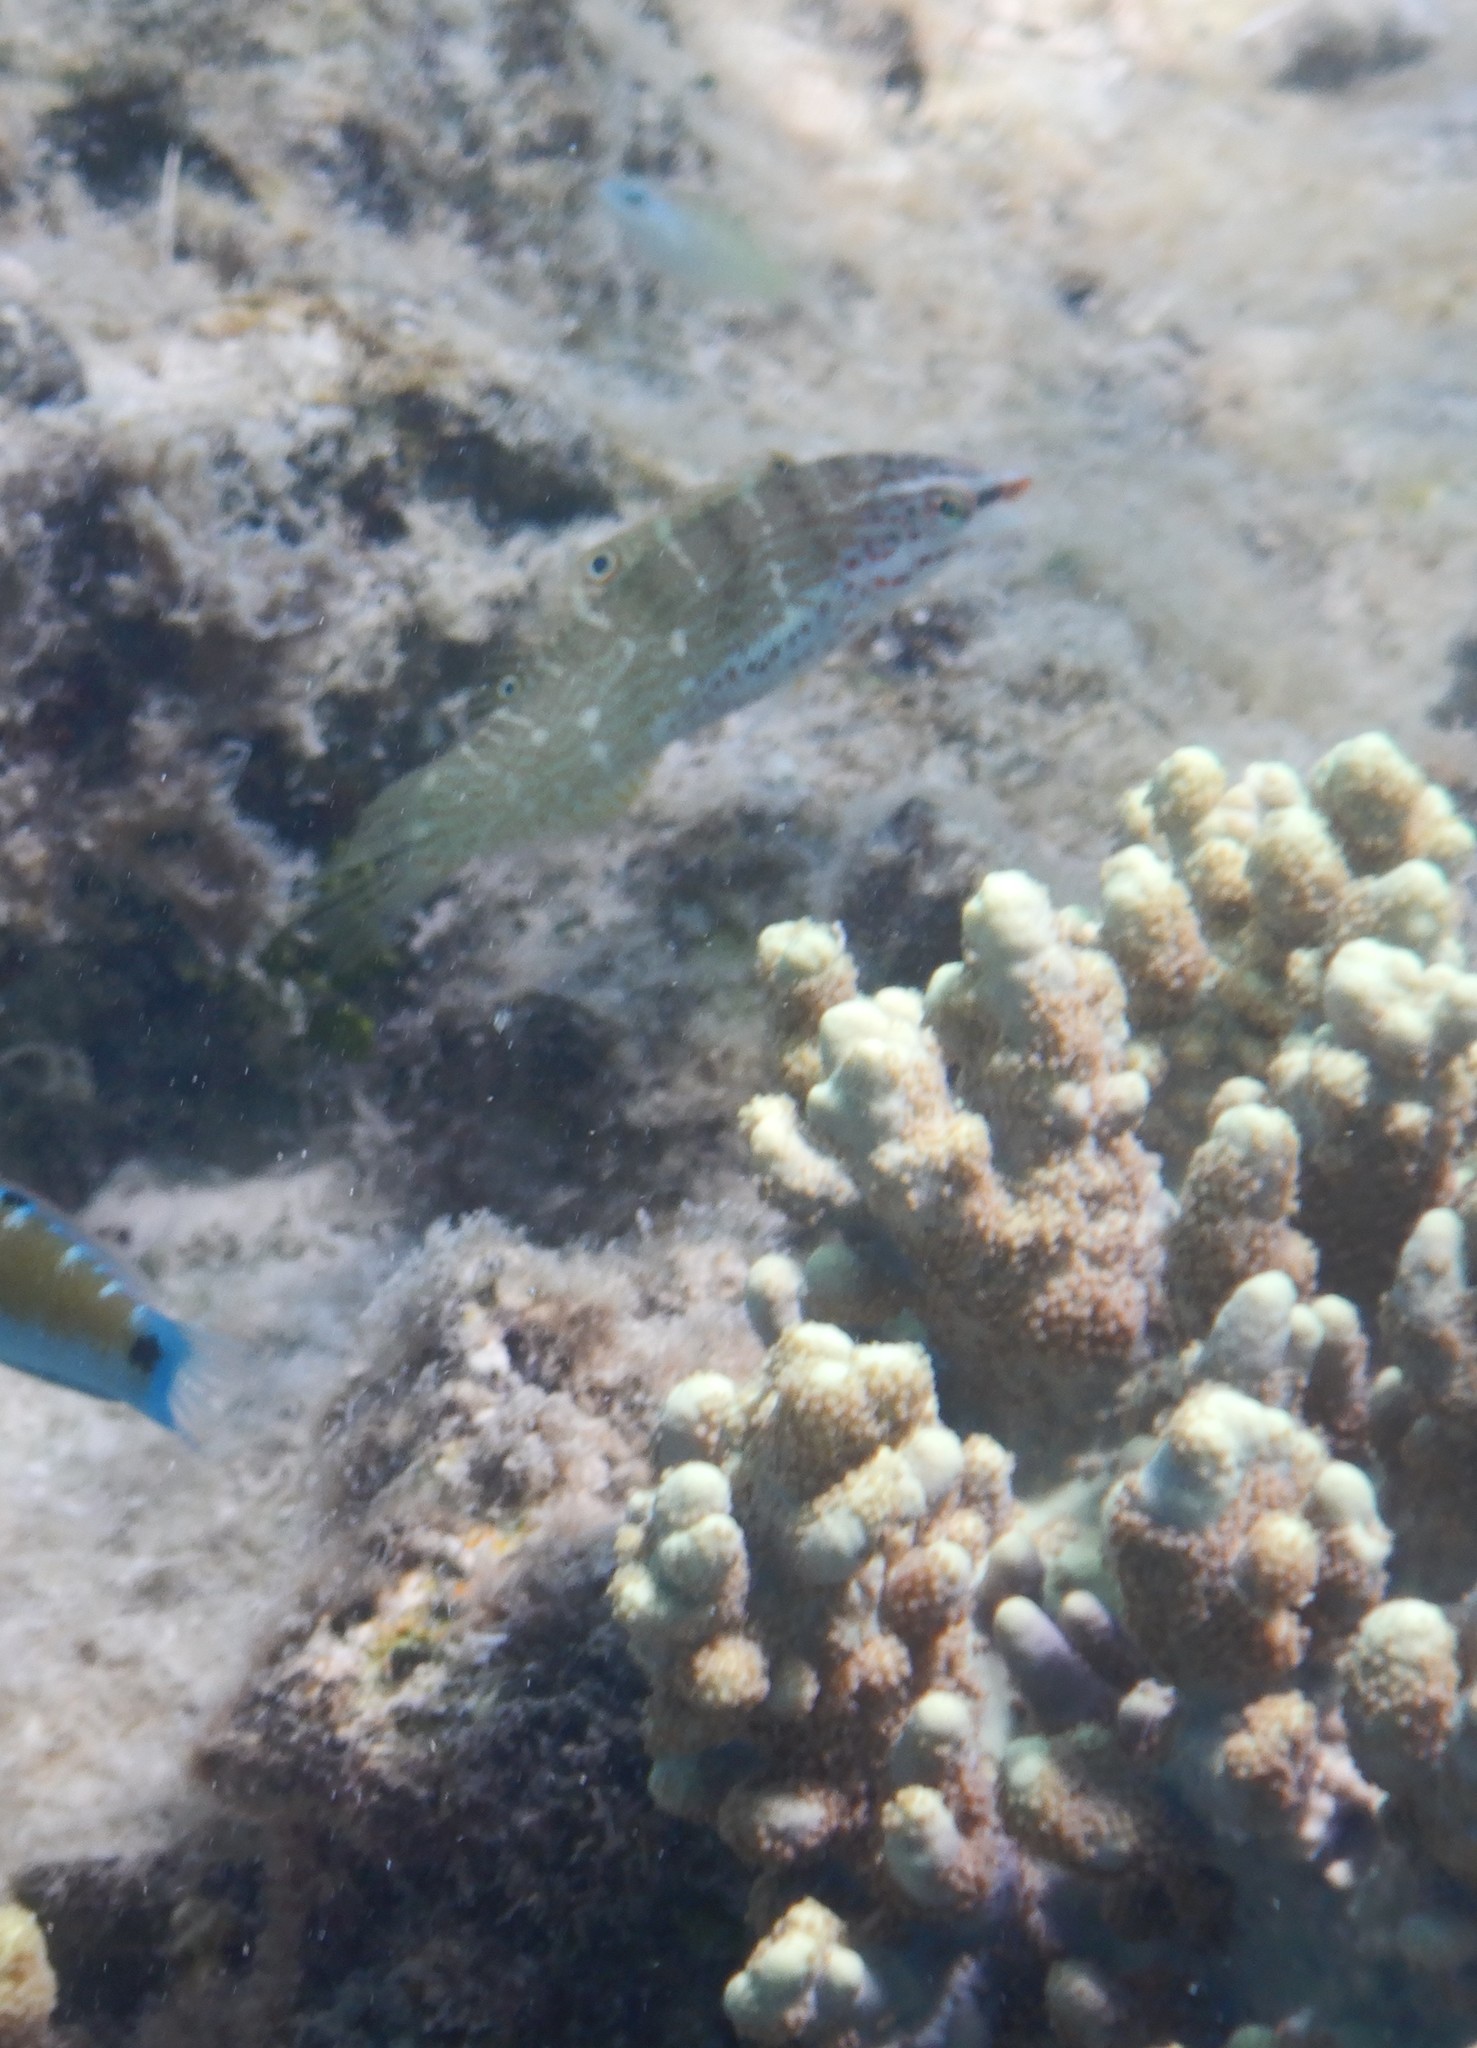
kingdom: Animalia
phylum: Chordata
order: Perciformes
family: Labridae
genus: Coris
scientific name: Coris batuensis
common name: Batu coris
